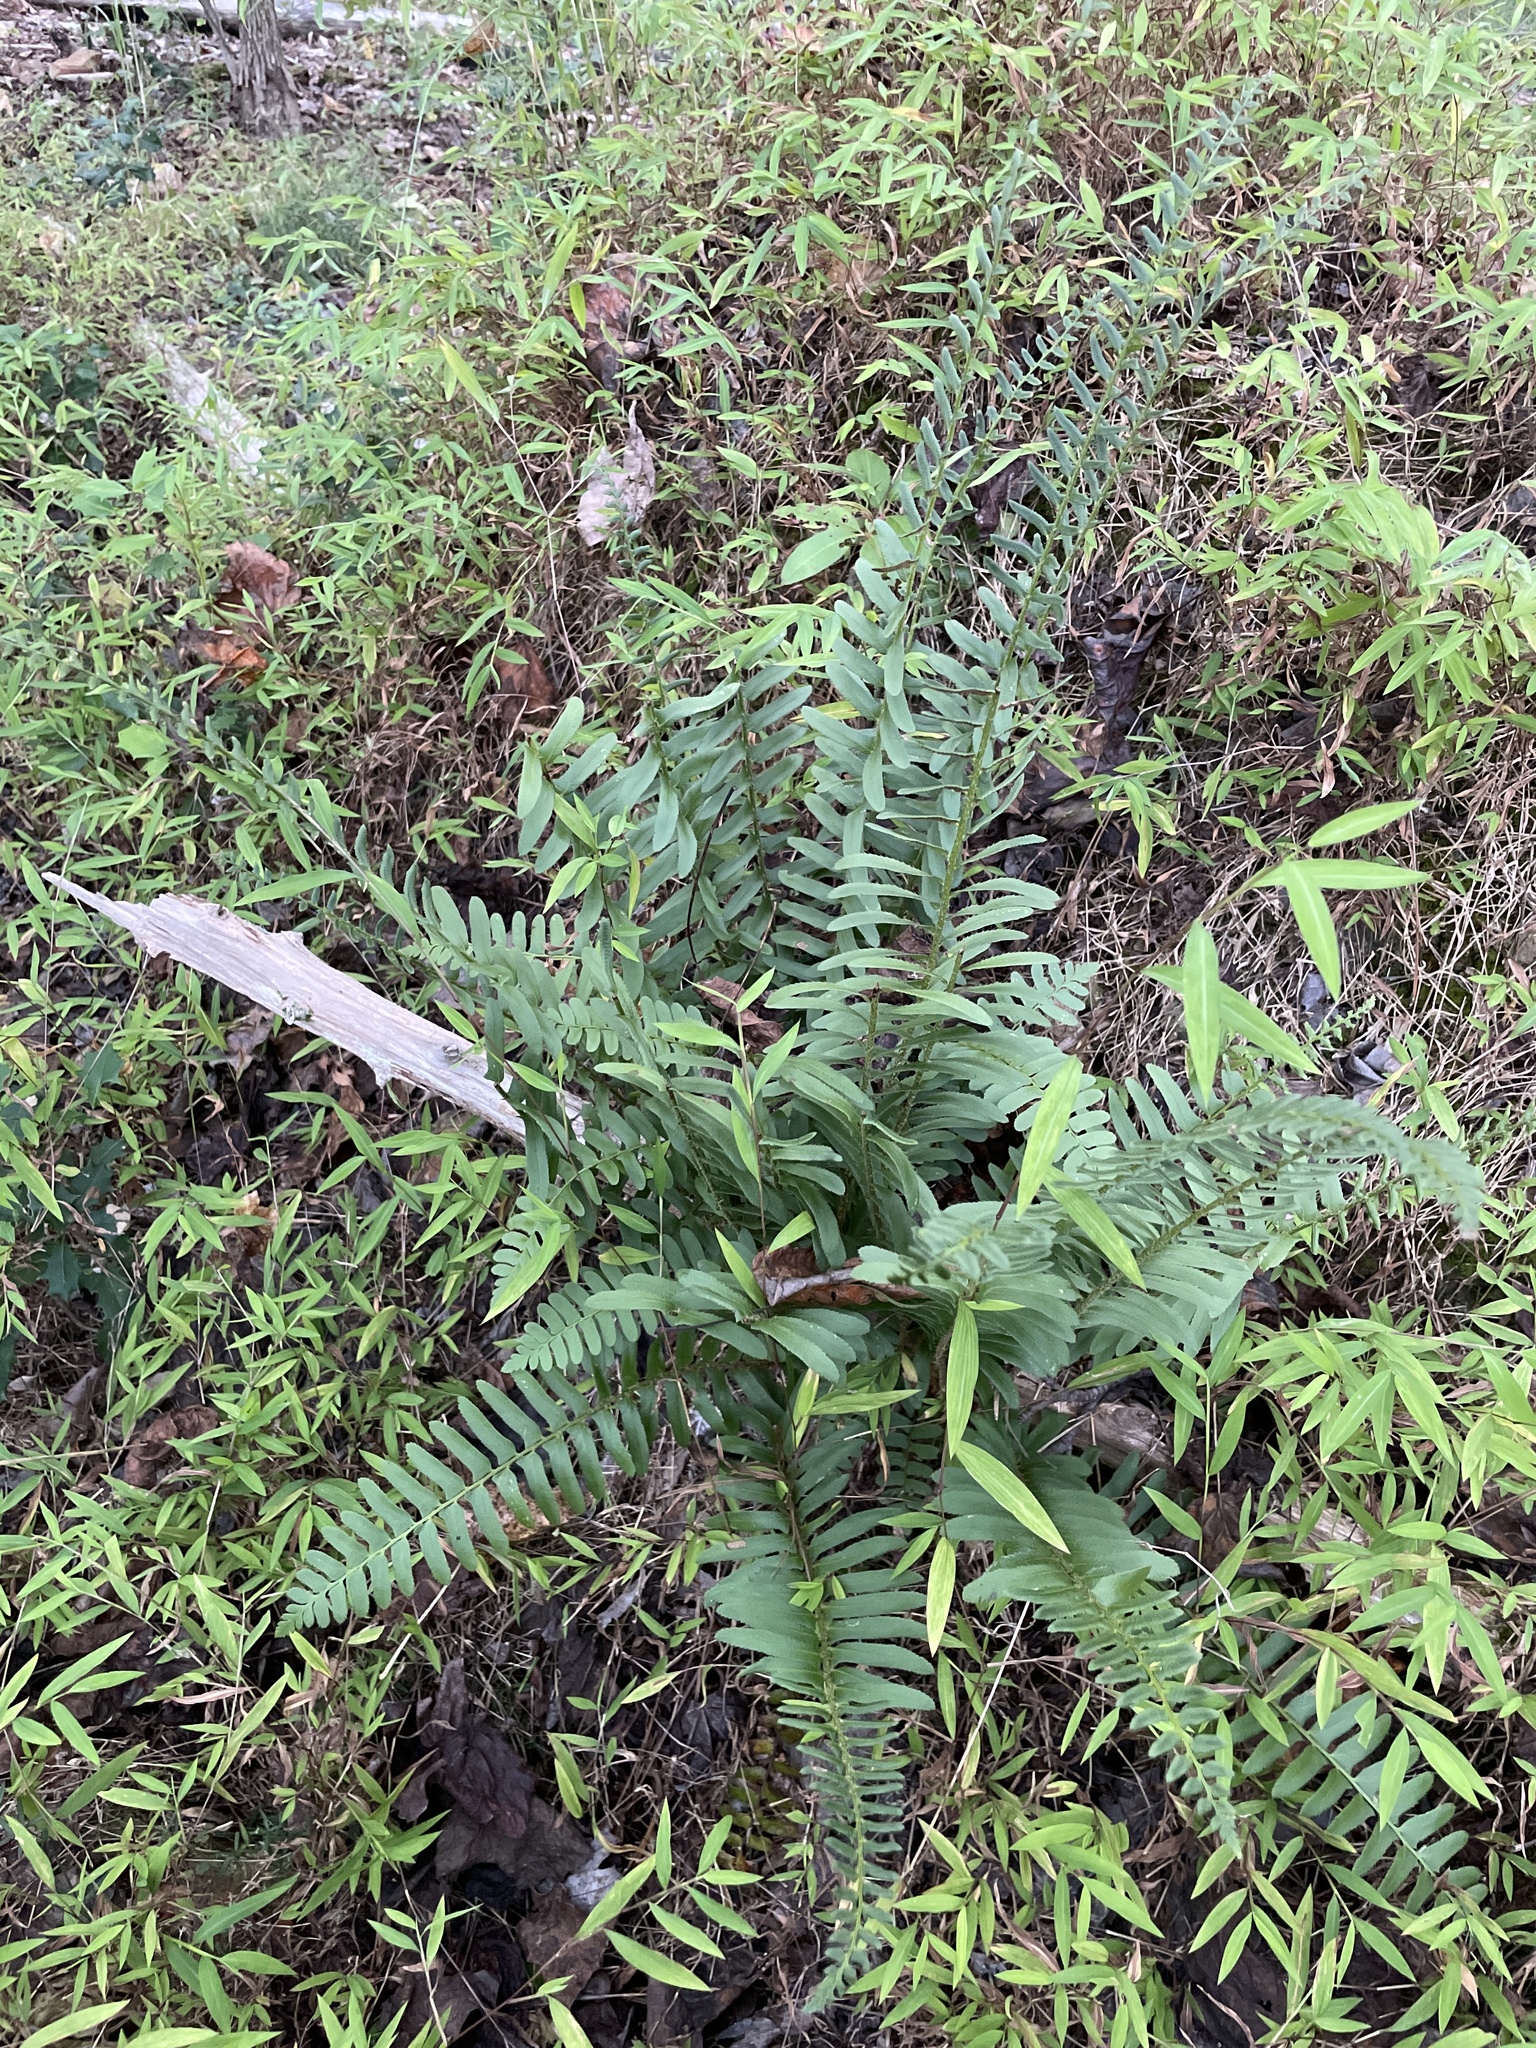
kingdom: Plantae
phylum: Tracheophyta
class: Polypodiopsida
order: Polypodiales
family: Dryopteridaceae
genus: Polystichum
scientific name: Polystichum acrostichoides
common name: Christmas fern
